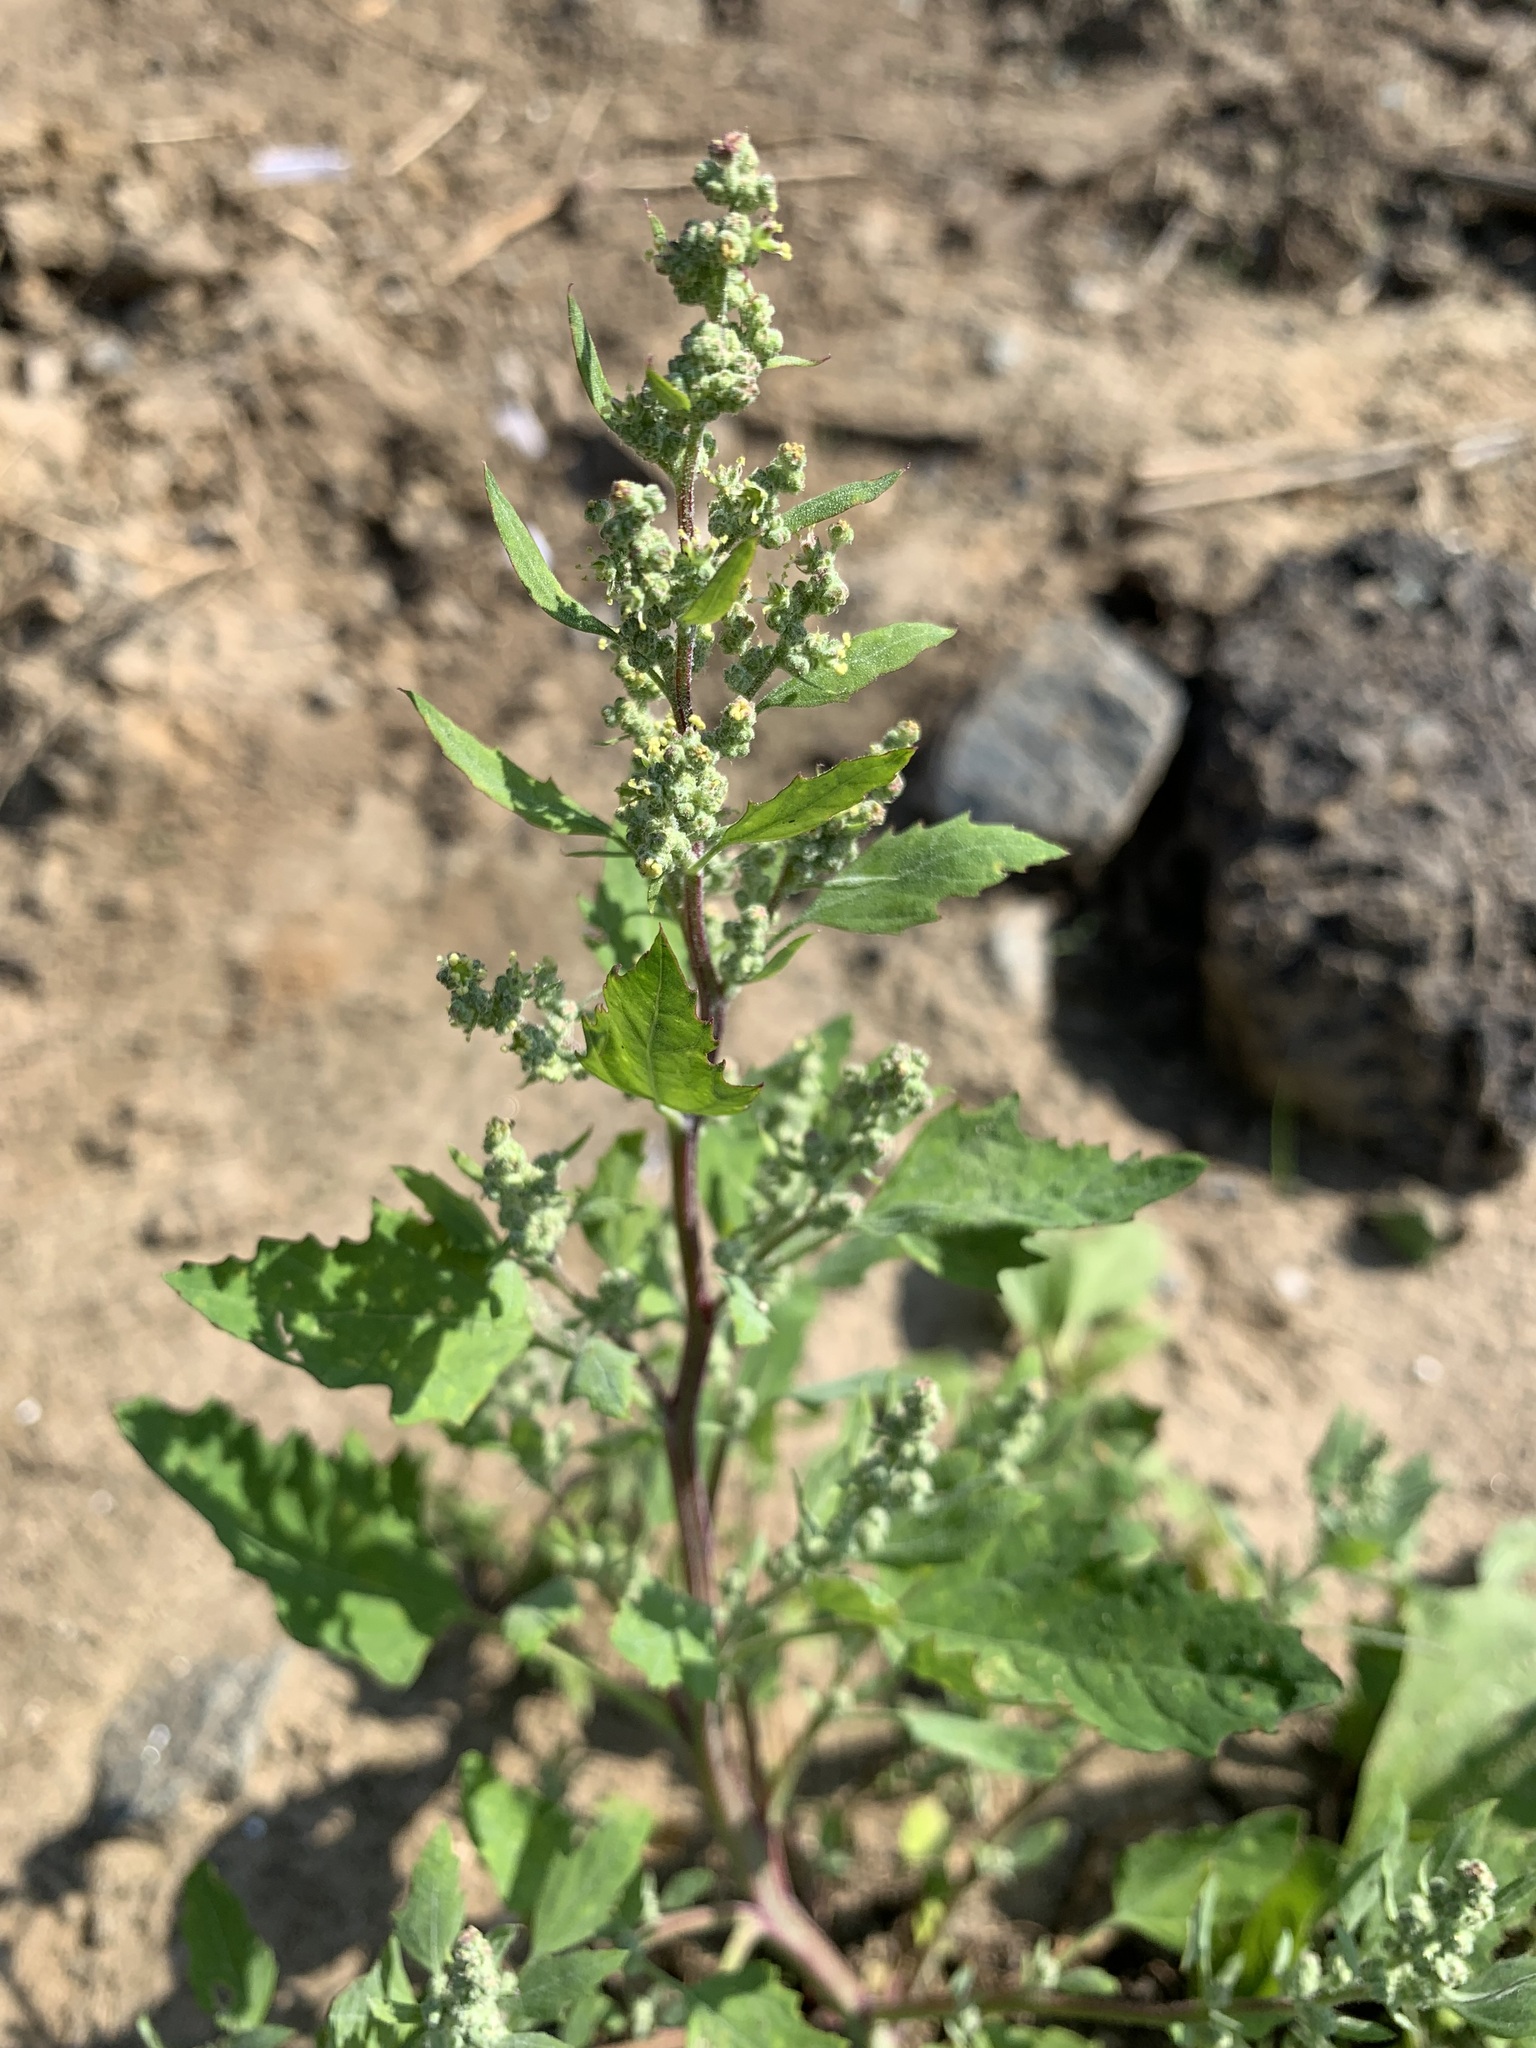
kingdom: Plantae
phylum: Tracheophyta
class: Magnoliopsida
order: Caryophyllales
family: Amaranthaceae
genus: Chenopodium
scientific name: Chenopodium album
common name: Fat-hen
